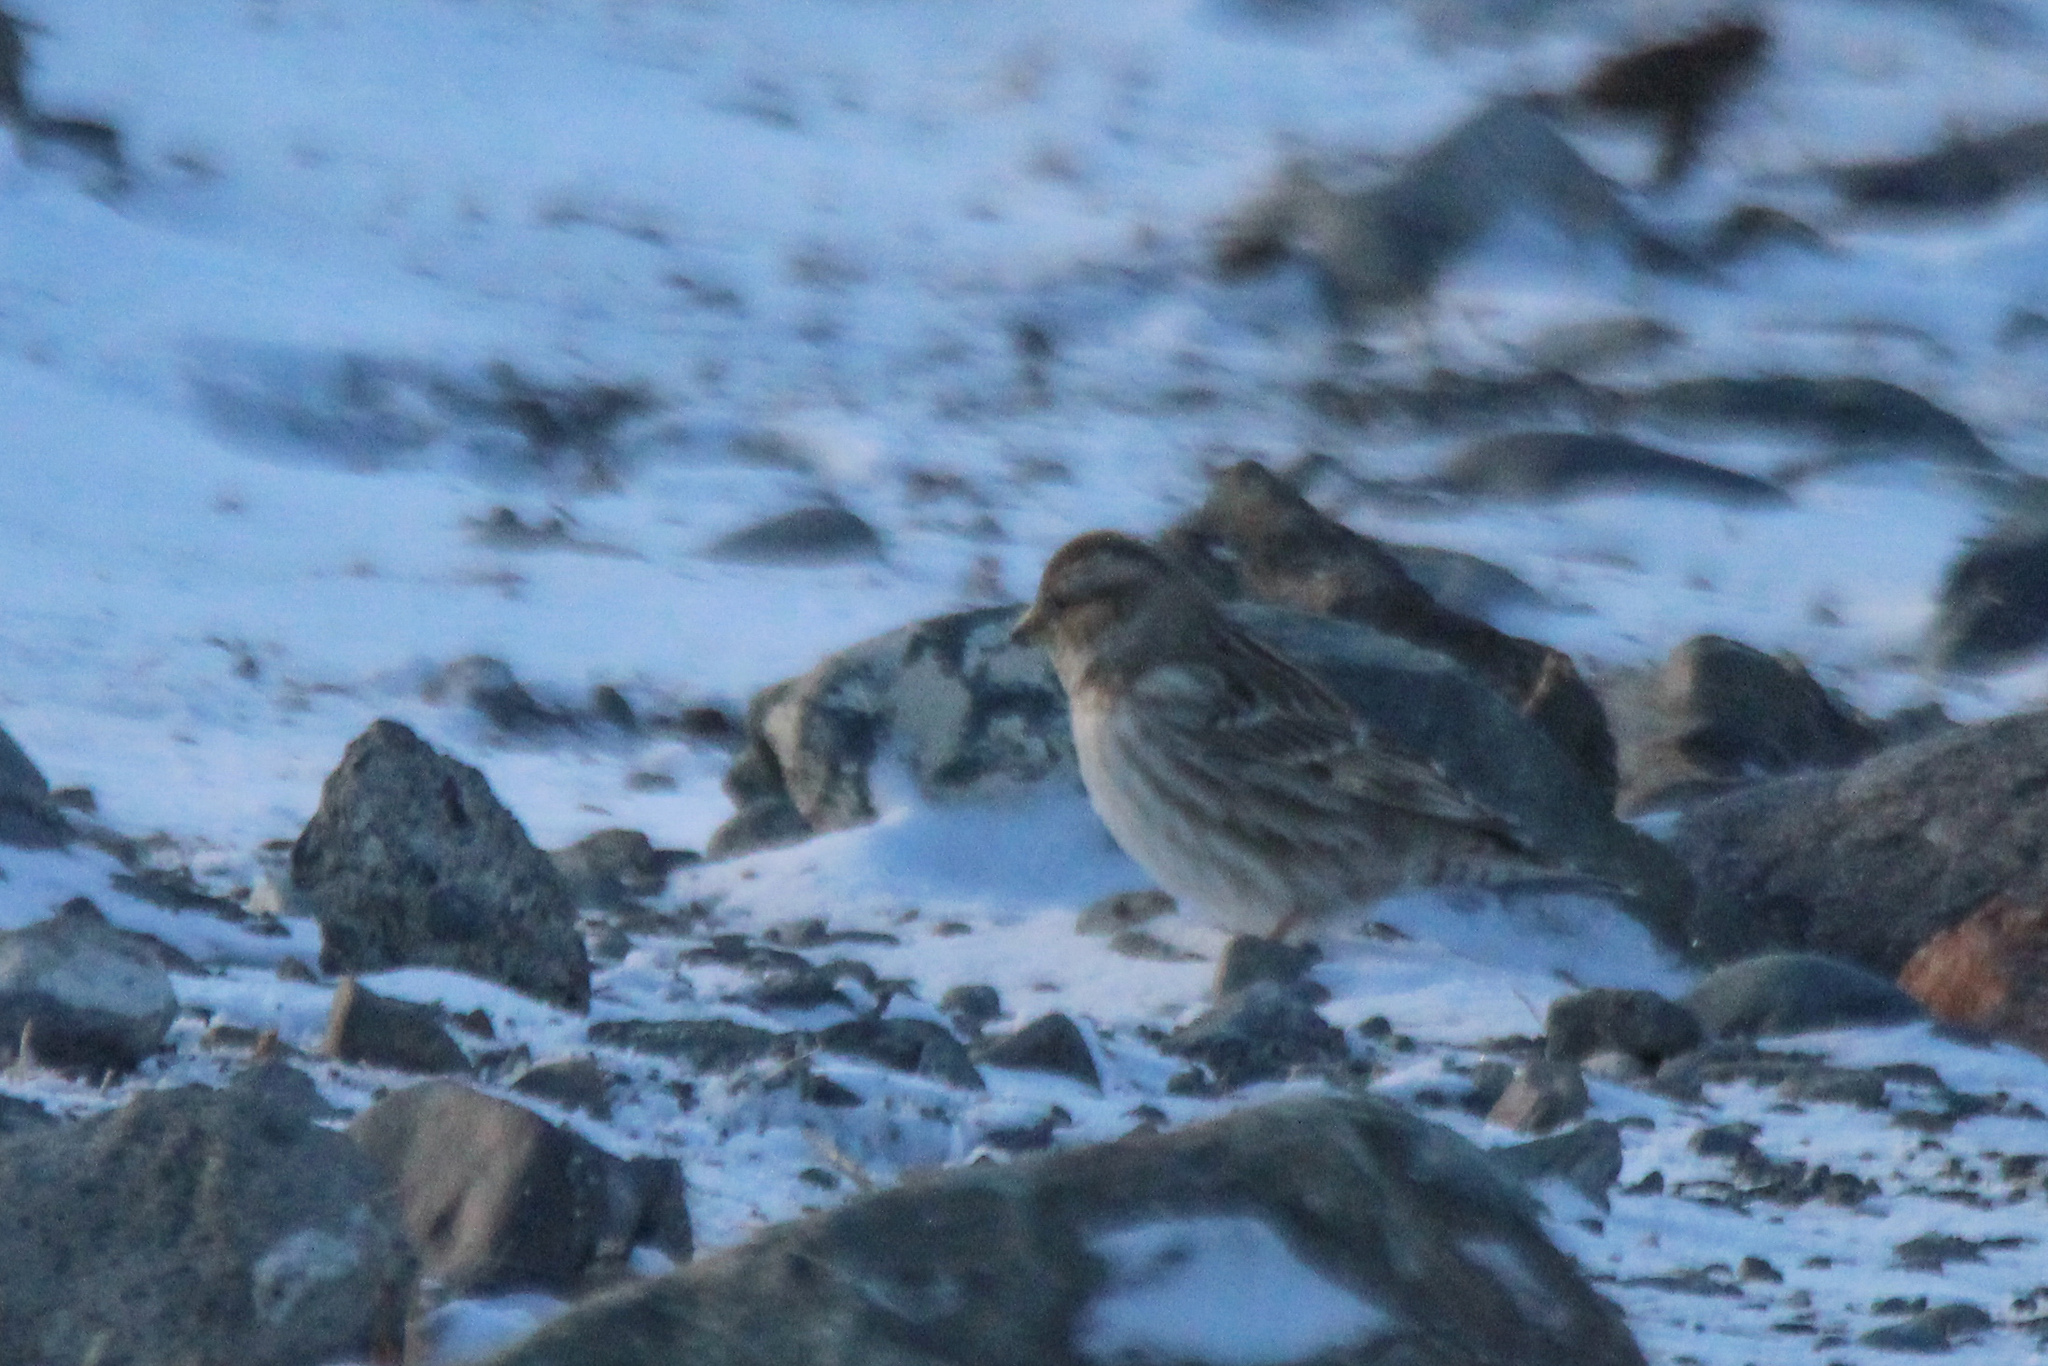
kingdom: Animalia
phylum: Chordata
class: Aves
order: Passeriformes
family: Passeridae
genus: Petronia
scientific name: Petronia petronia
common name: Rock sparrow
